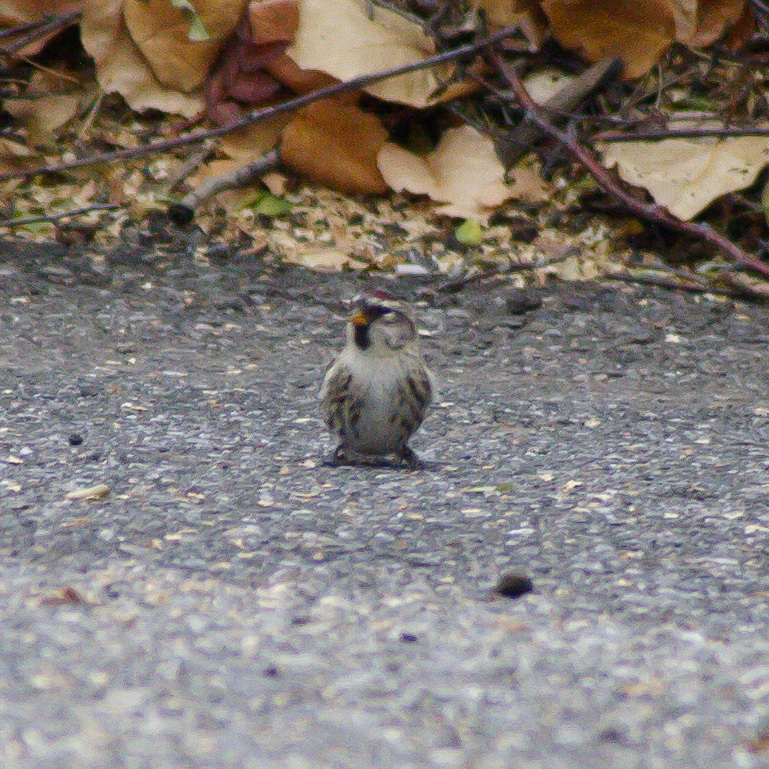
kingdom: Animalia
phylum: Chordata
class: Aves
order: Passeriformes
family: Fringillidae
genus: Acanthis
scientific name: Acanthis flammea
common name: Common redpoll
